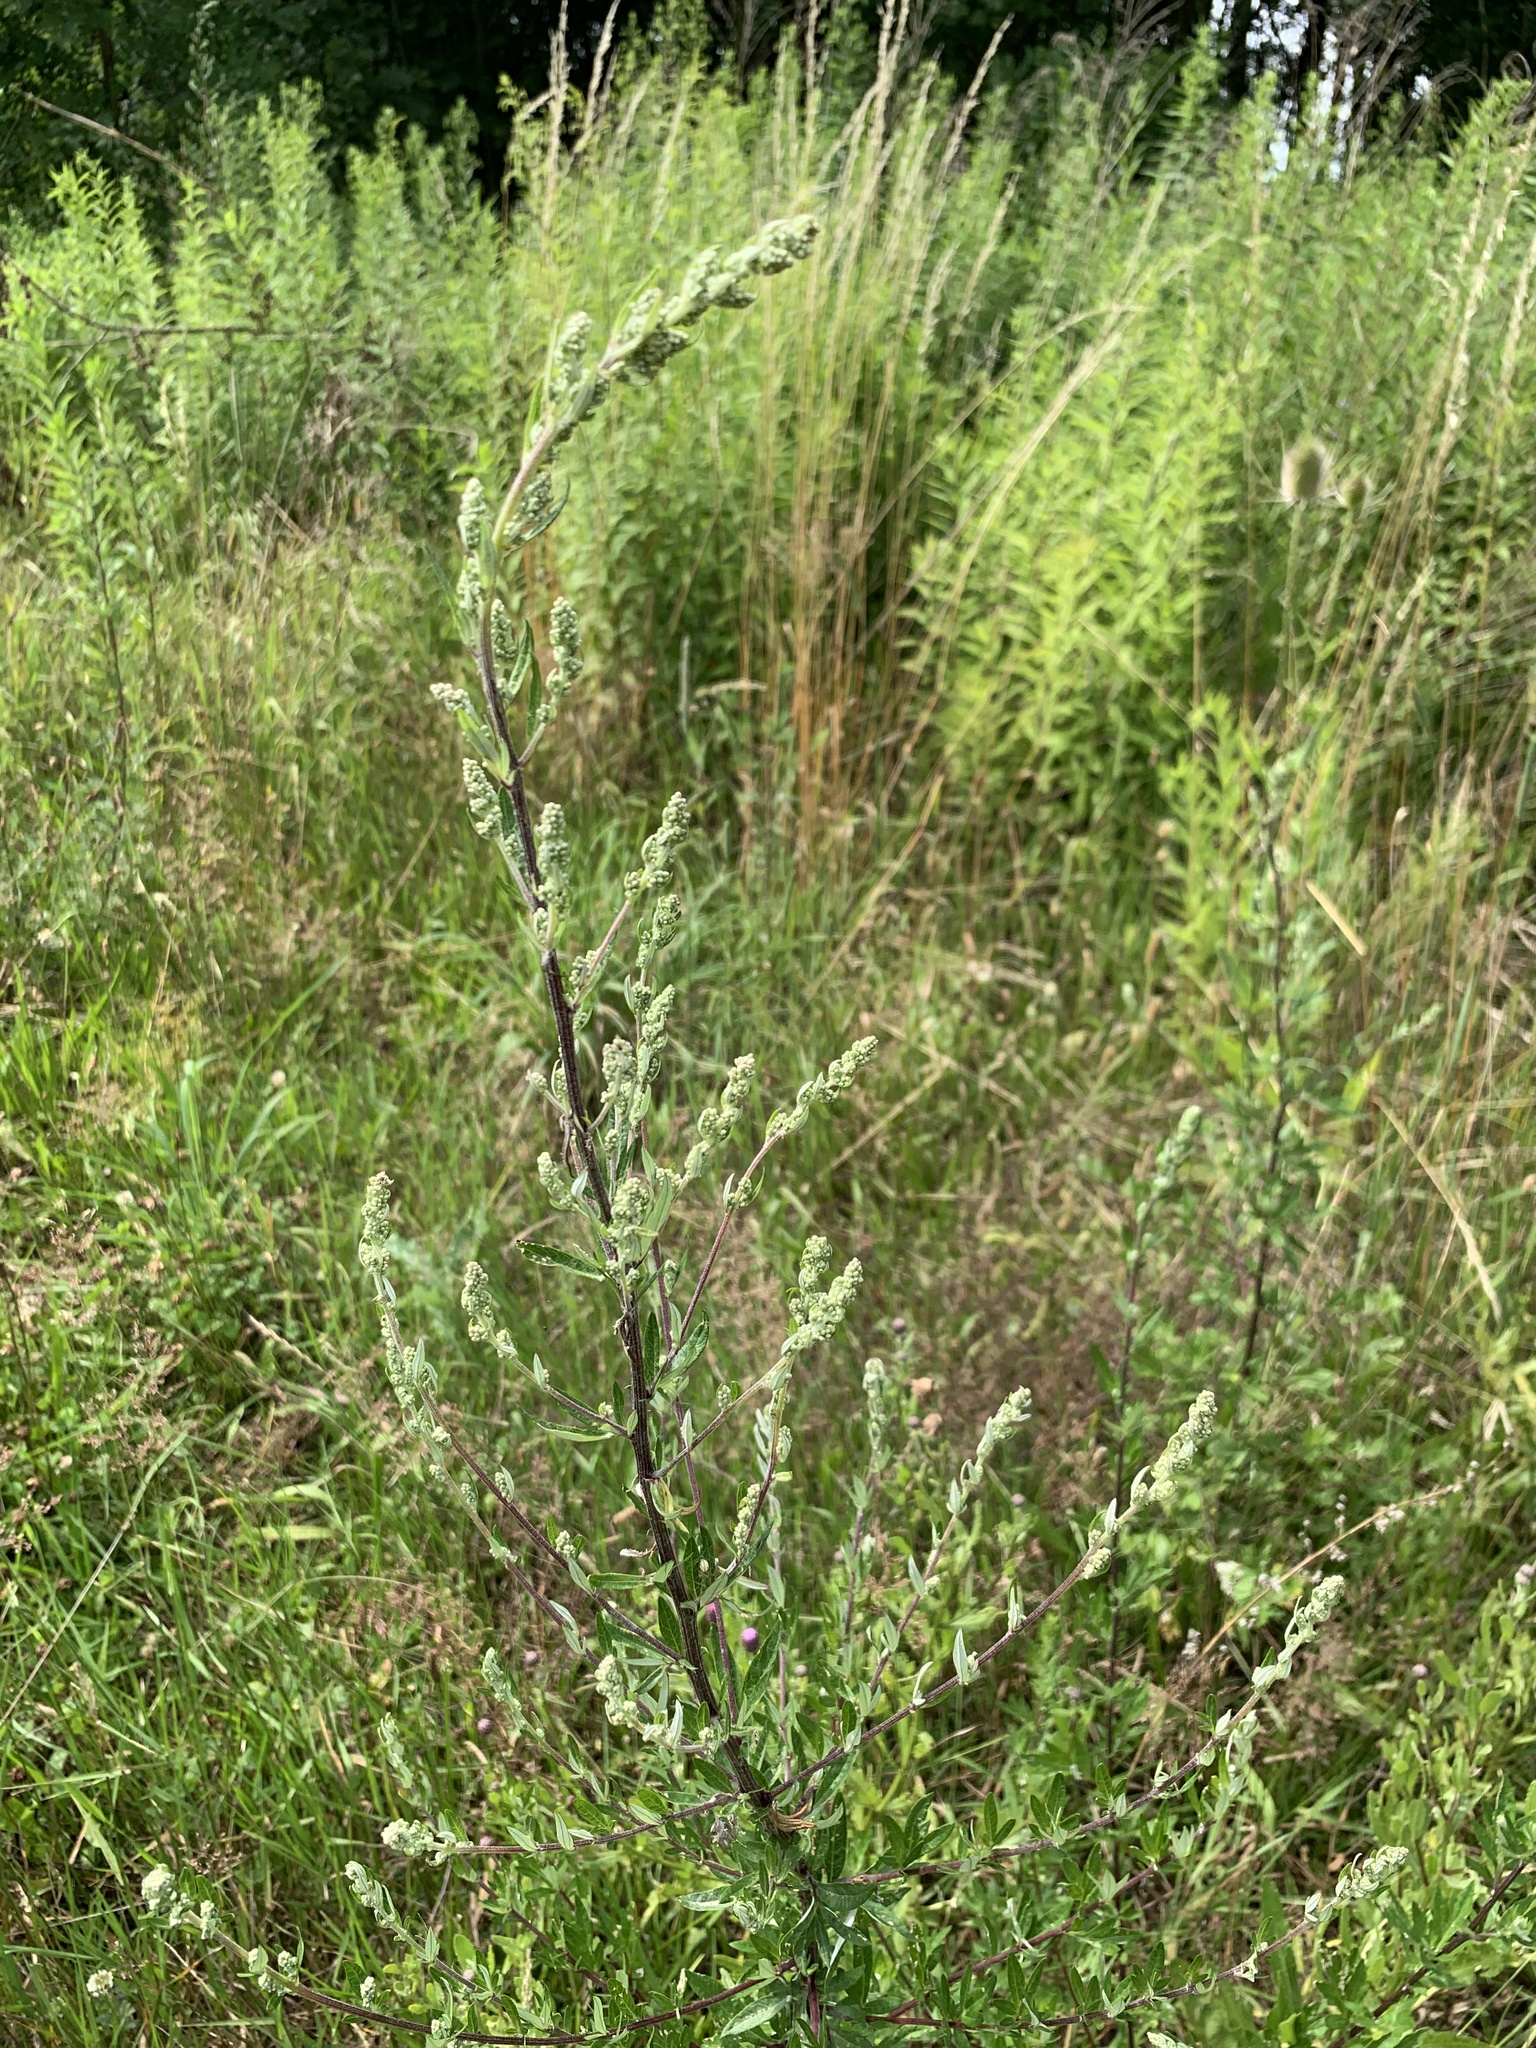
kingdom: Plantae
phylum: Tracheophyta
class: Magnoliopsida
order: Asterales
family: Asteraceae
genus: Artemisia
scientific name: Artemisia vulgaris
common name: Mugwort
